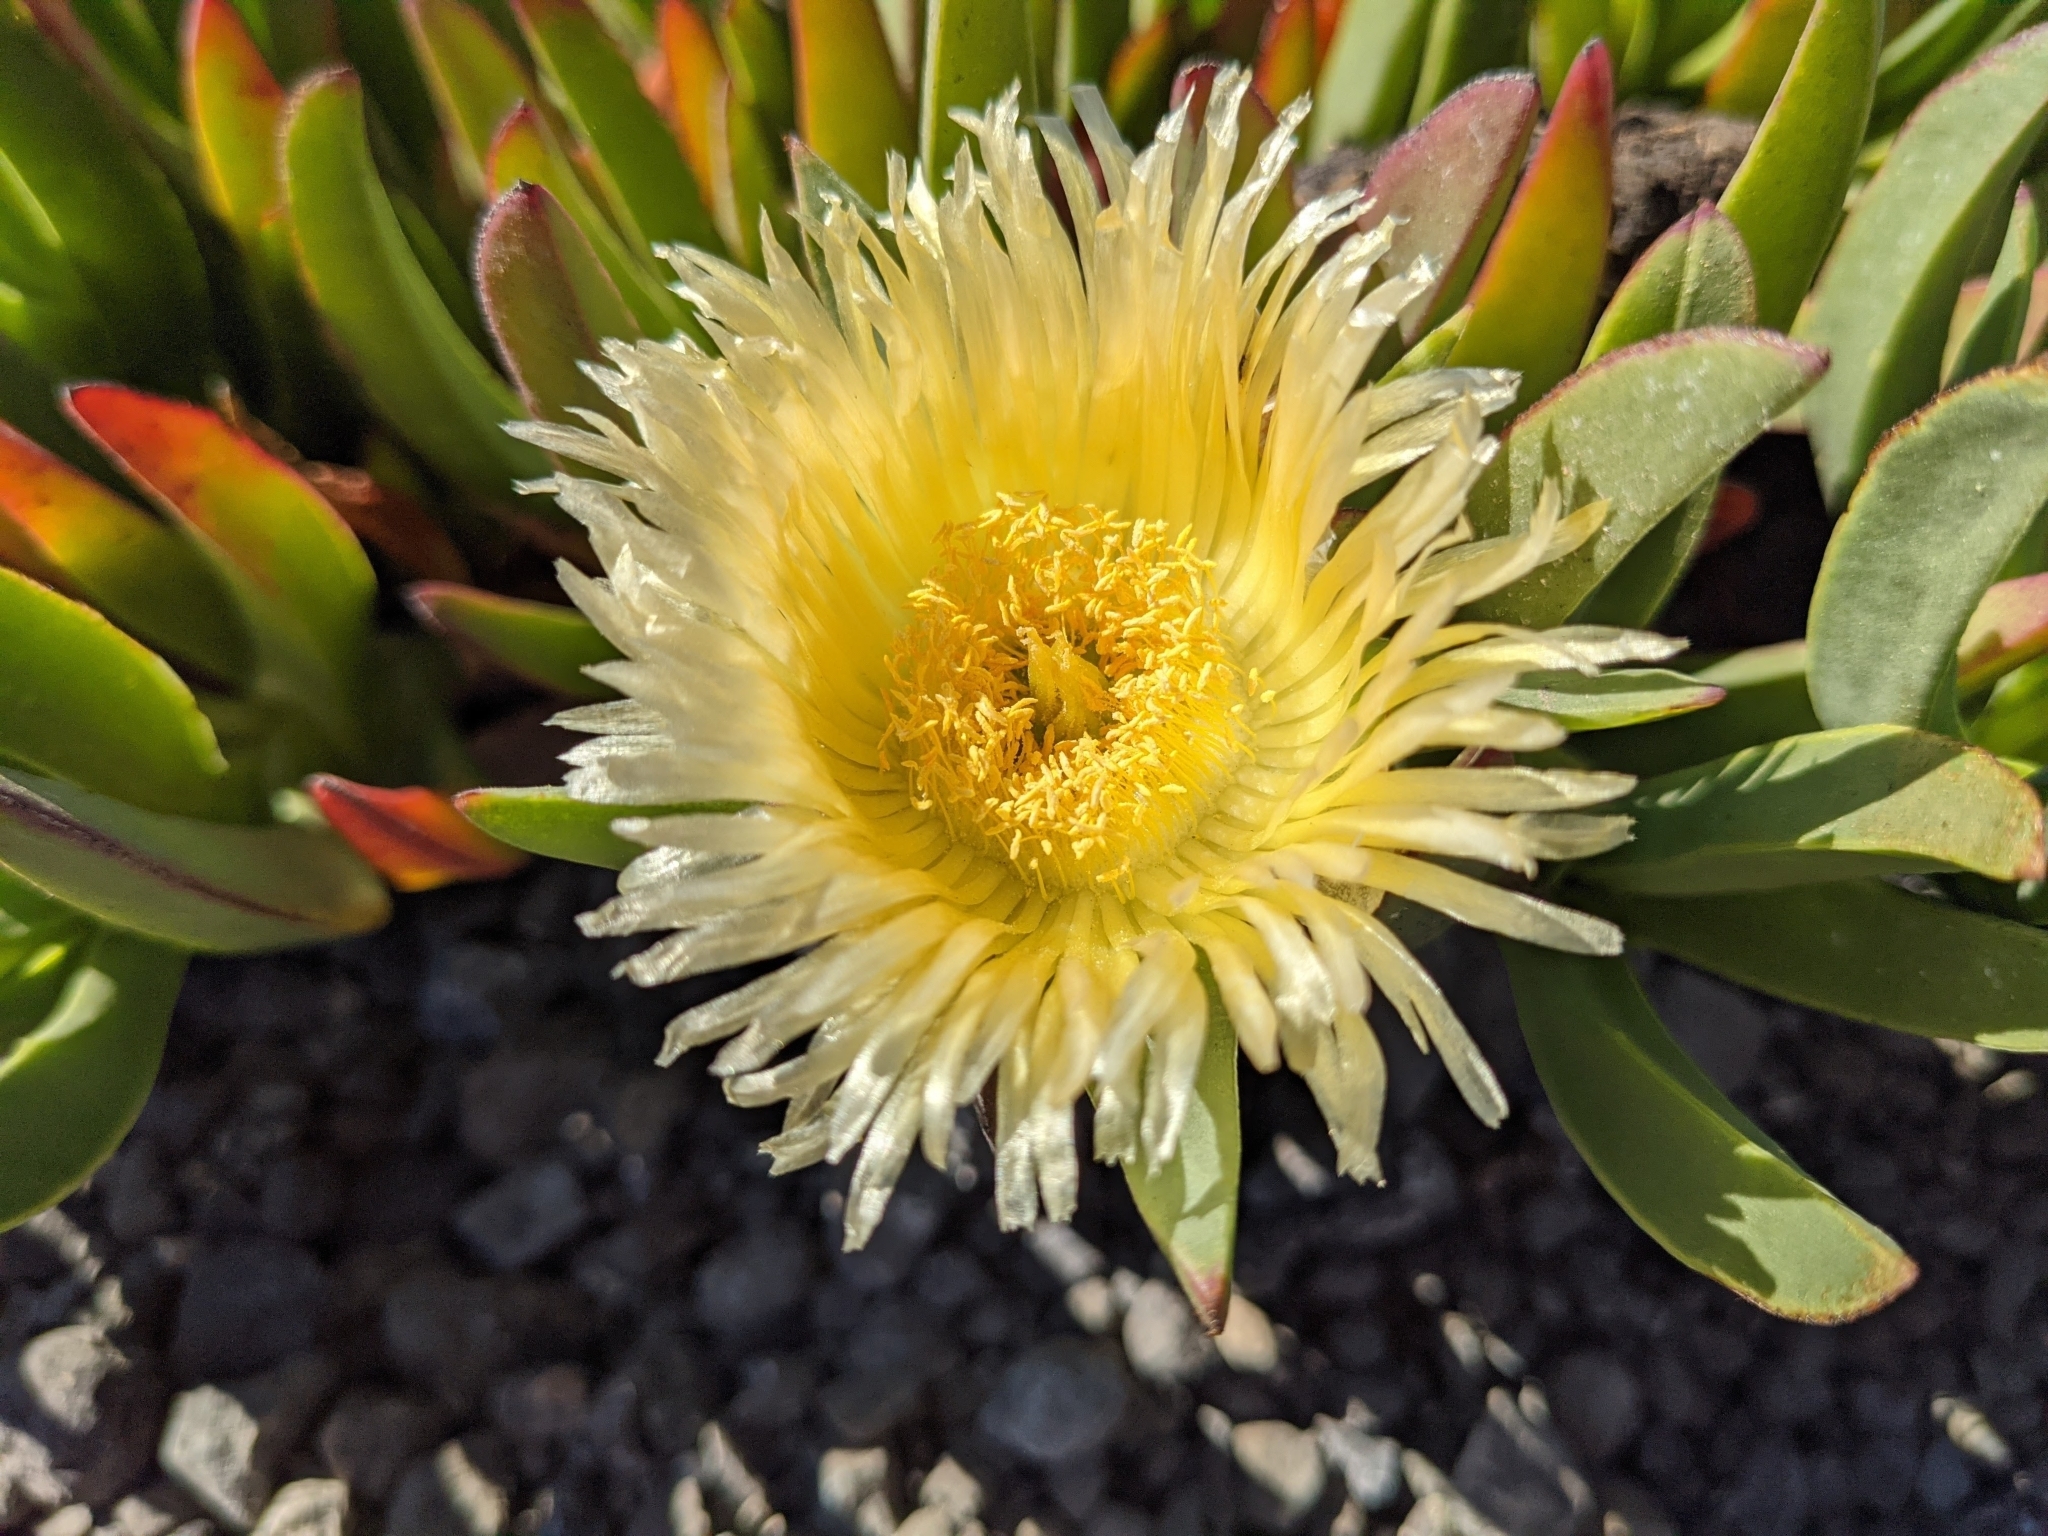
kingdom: Plantae
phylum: Tracheophyta
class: Magnoliopsida
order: Caryophyllales
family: Aizoaceae
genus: Carpobrotus
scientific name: Carpobrotus edulis
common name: Hottentot-fig
